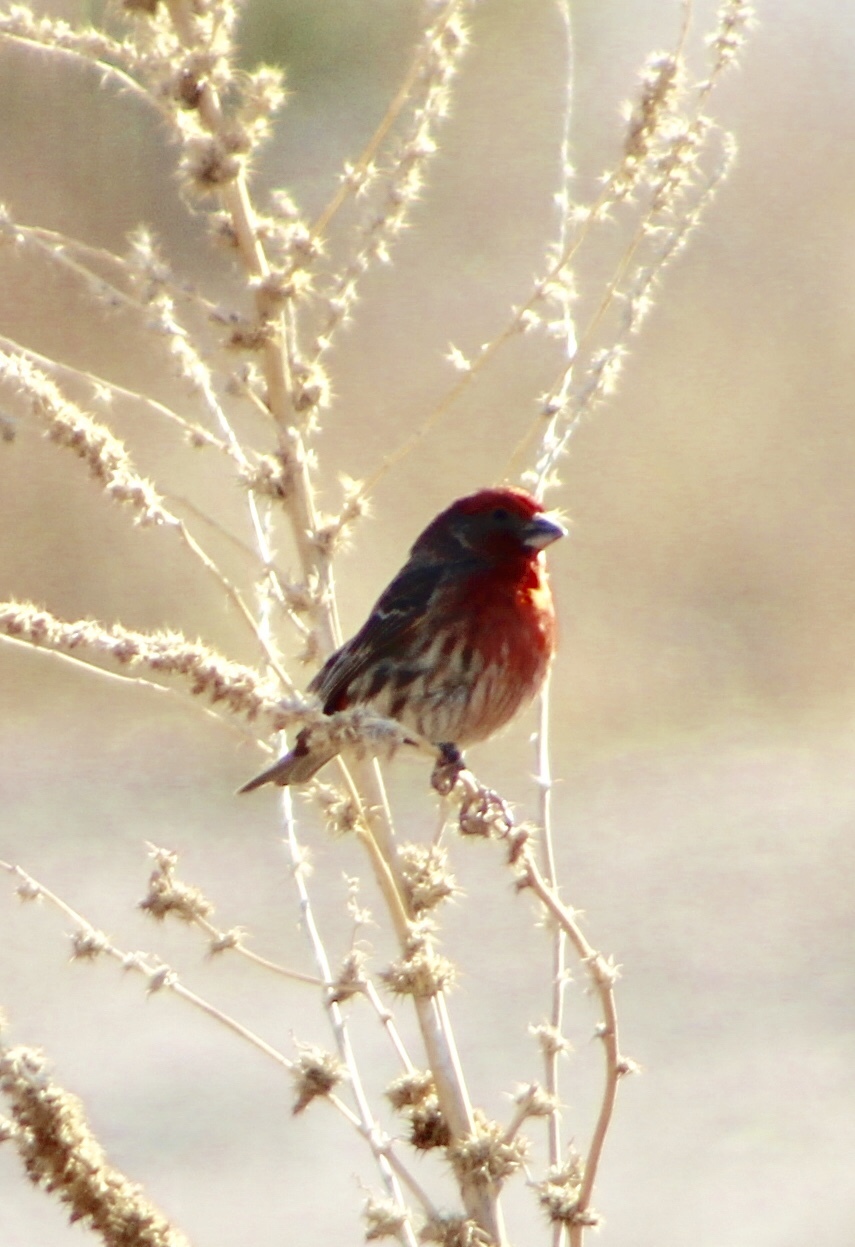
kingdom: Animalia
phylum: Chordata
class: Aves
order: Passeriformes
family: Fringillidae
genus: Haemorhous
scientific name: Haemorhous mexicanus
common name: House finch
